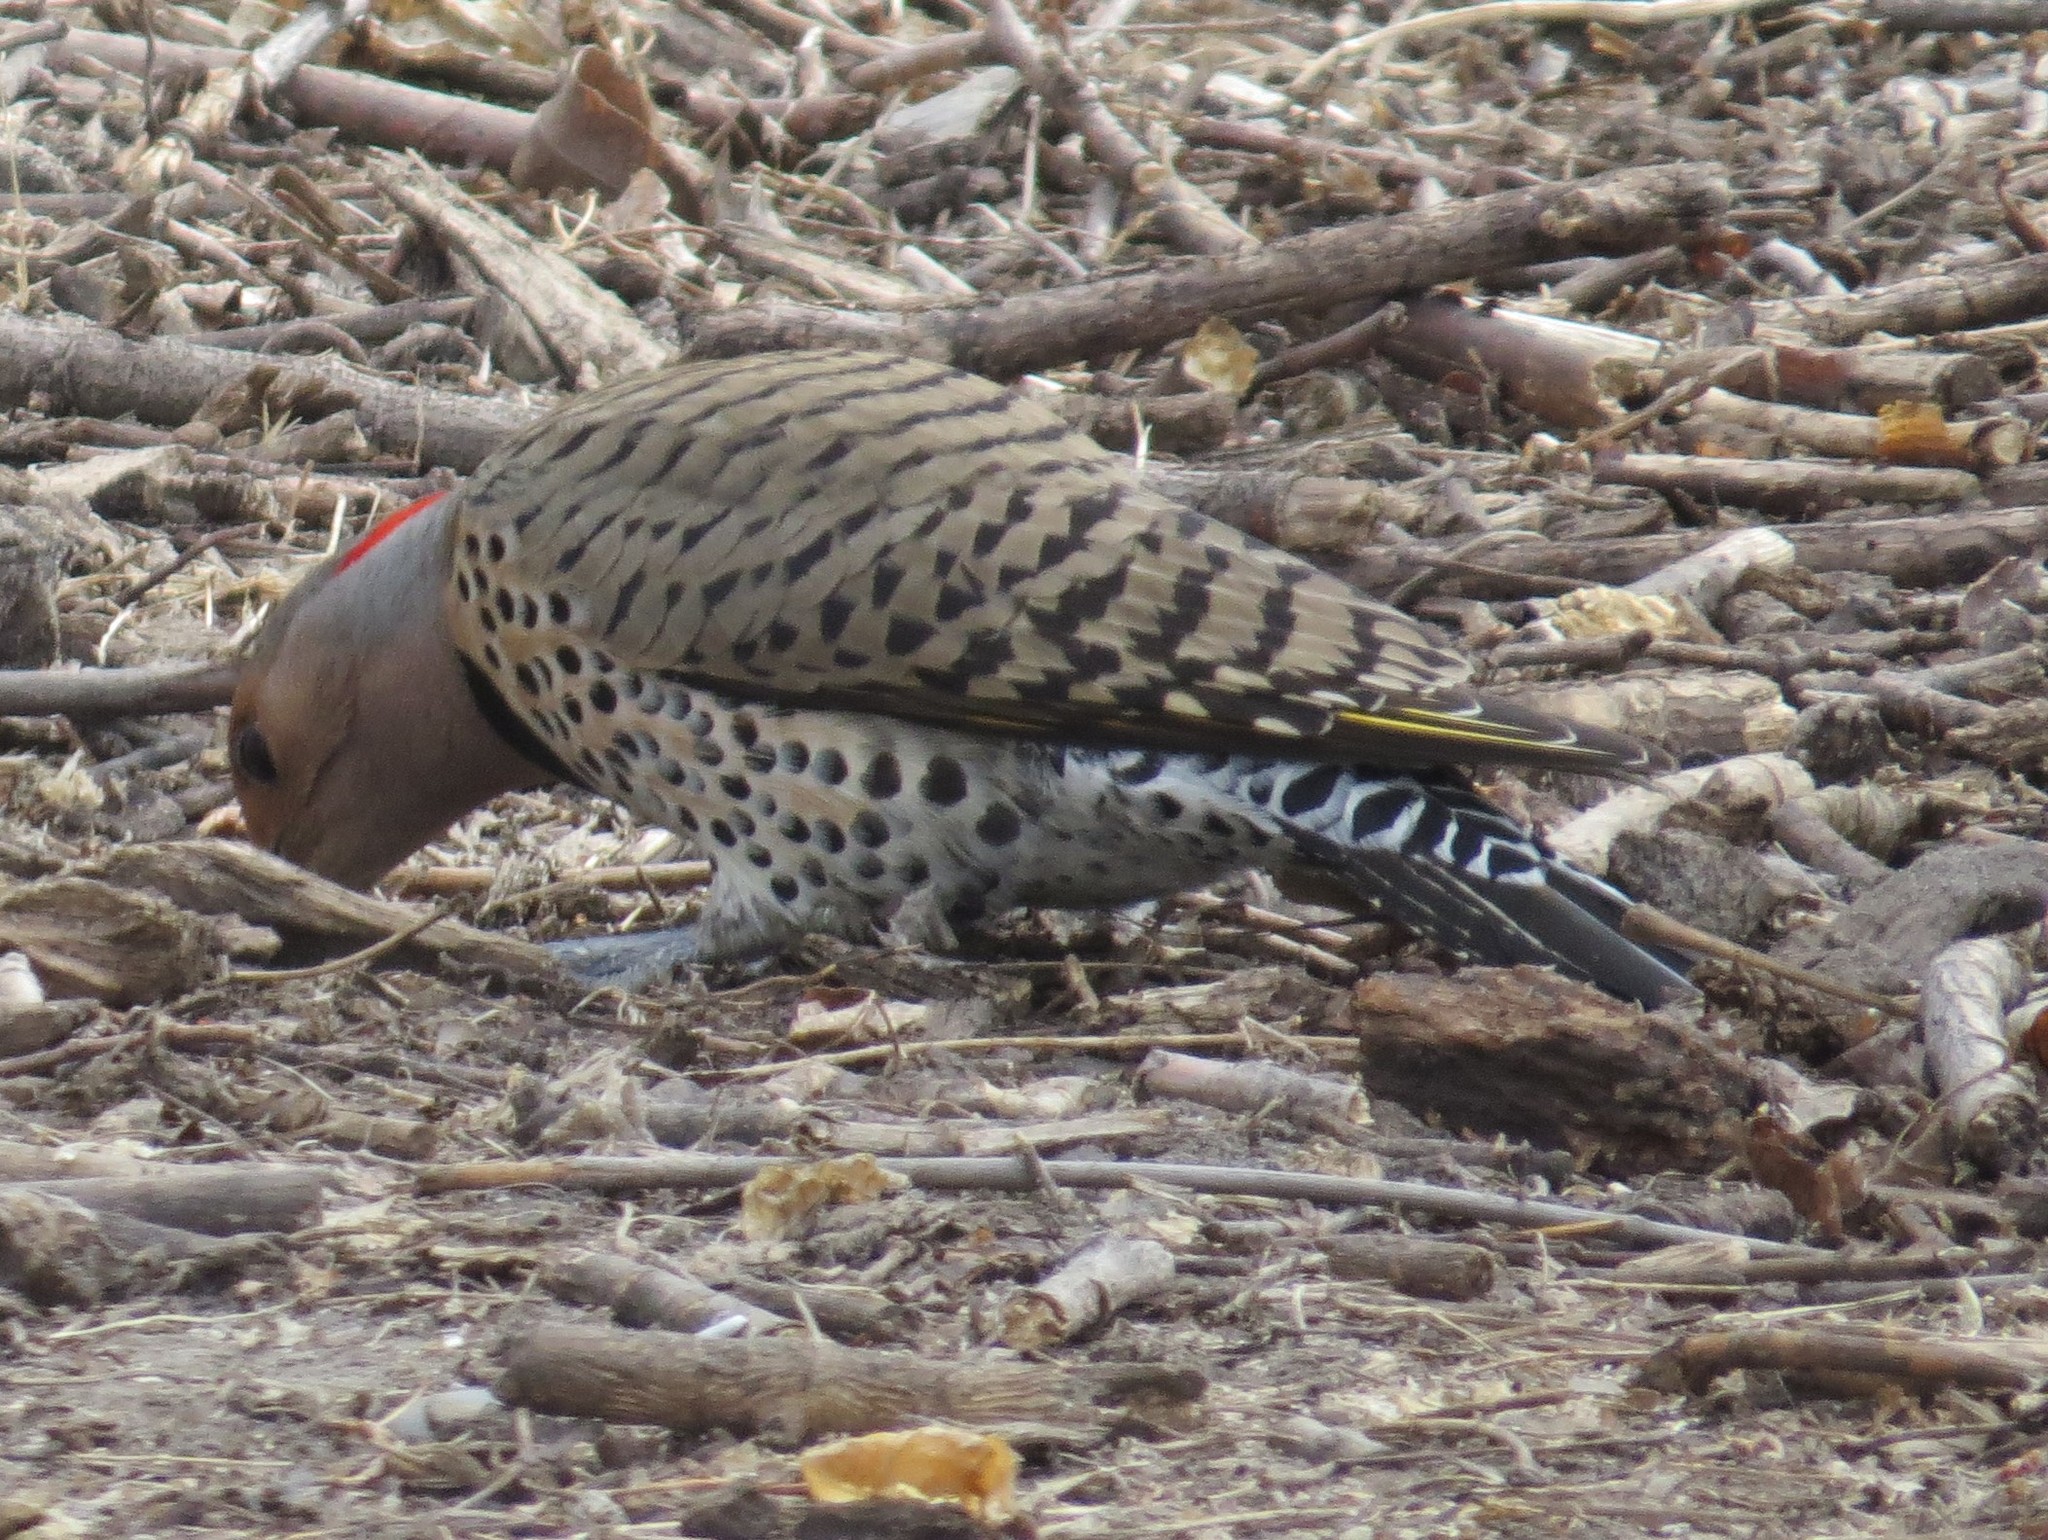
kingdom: Animalia
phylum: Chordata
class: Aves
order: Piciformes
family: Picidae
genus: Colaptes
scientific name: Colaptes auratus
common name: Northern flicker
